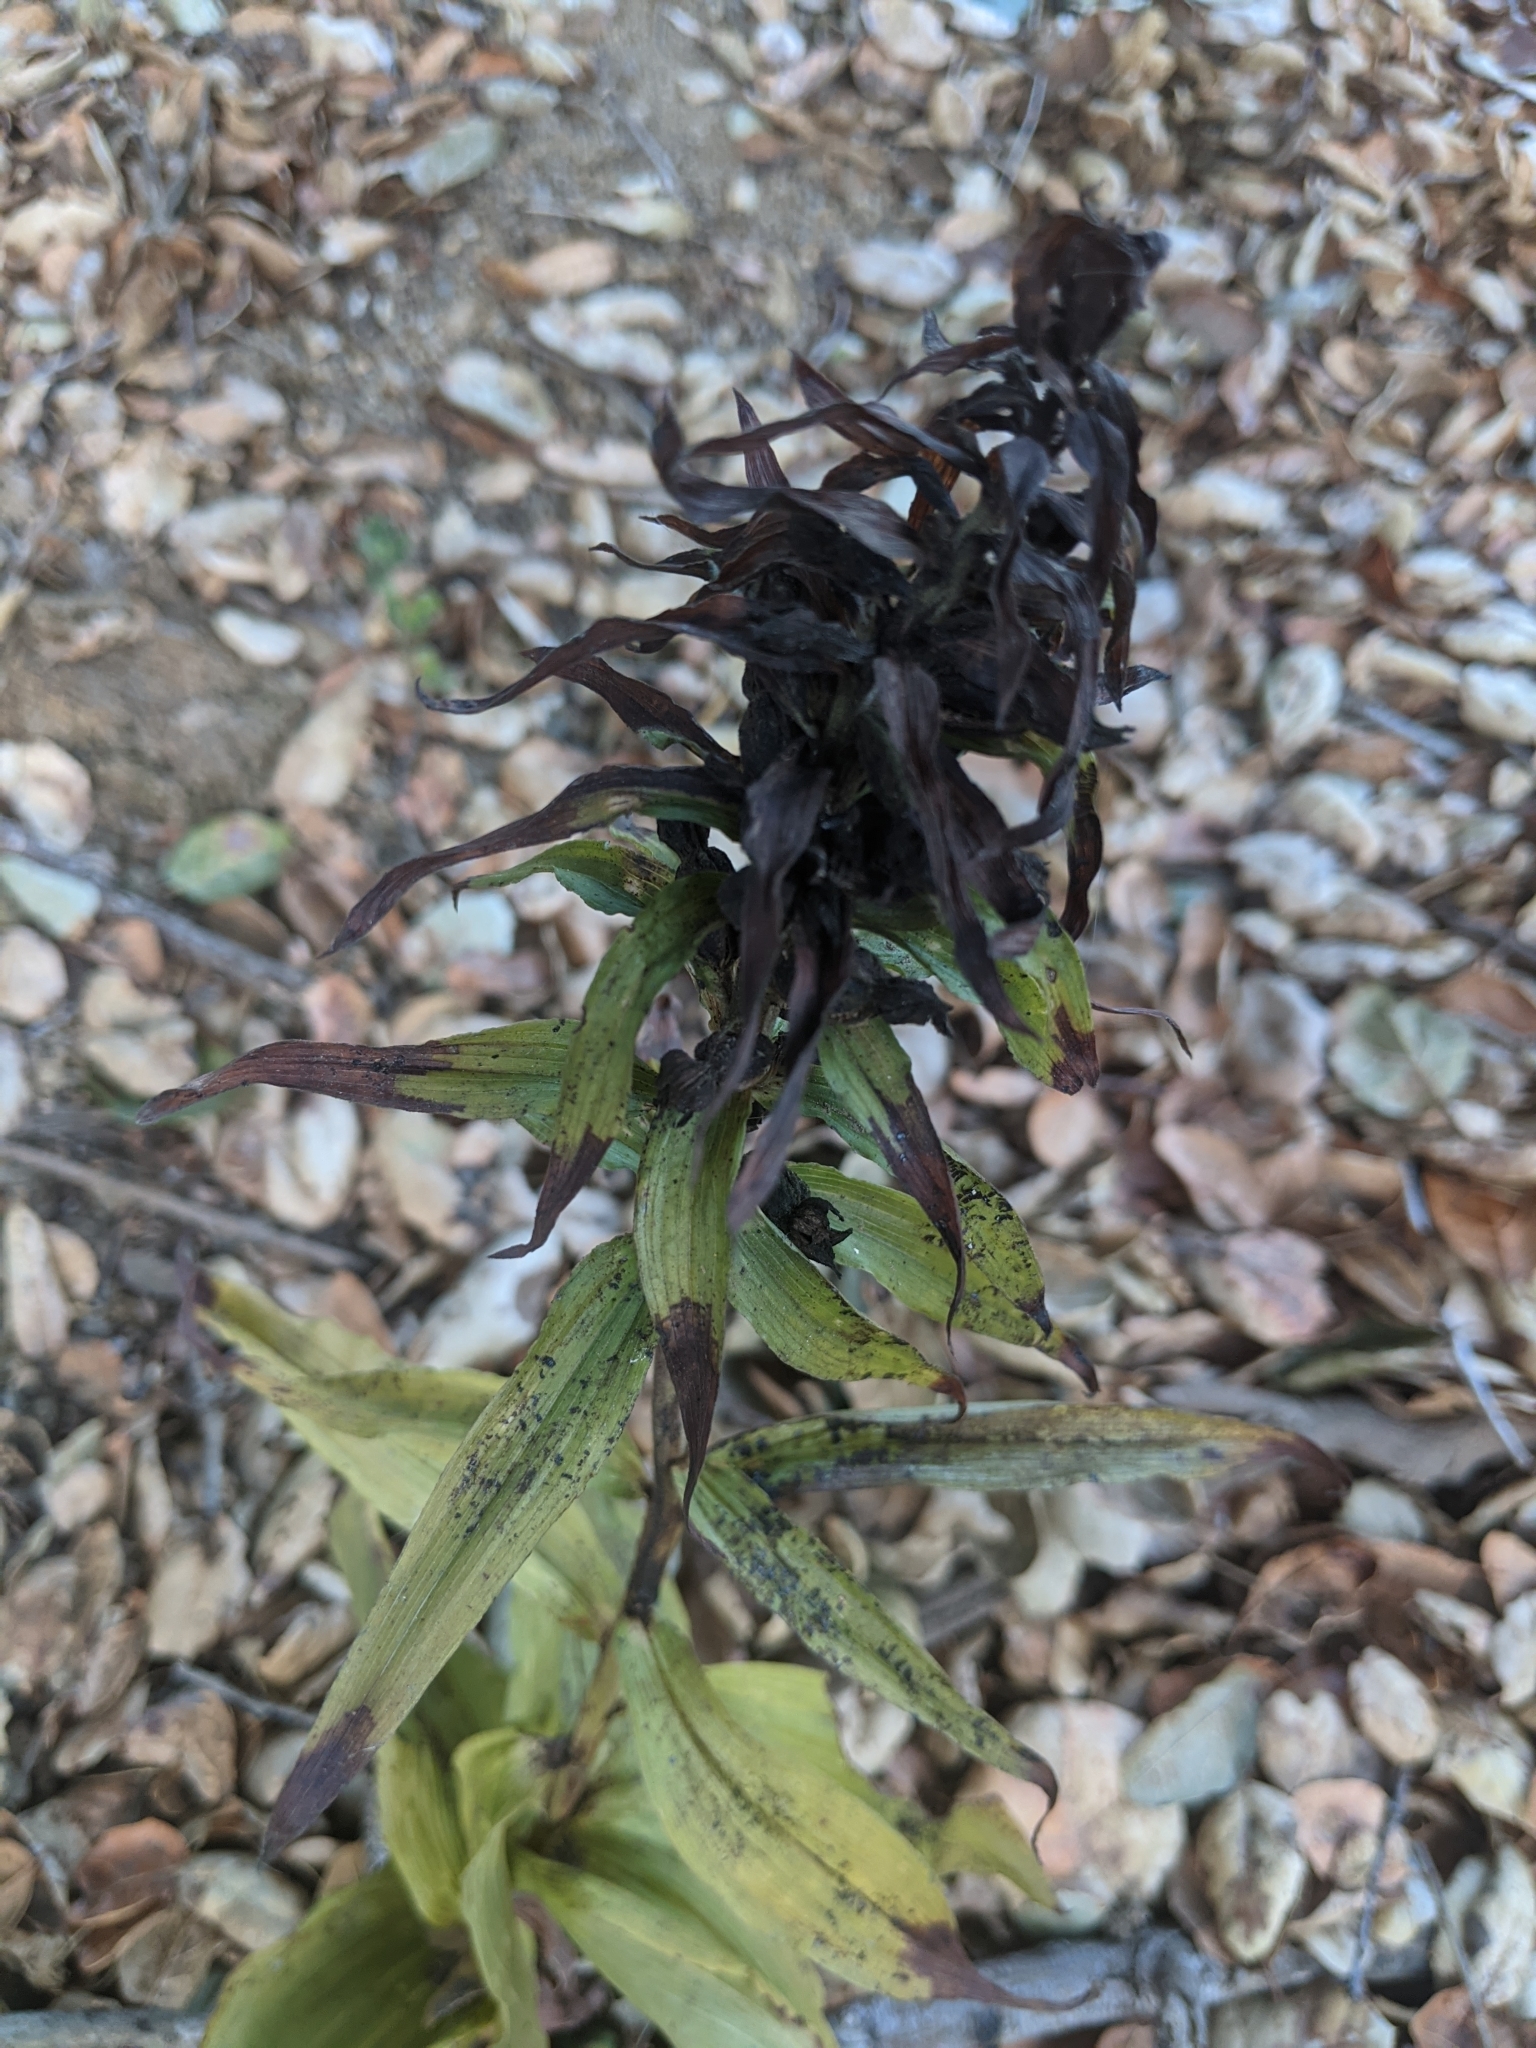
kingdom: Plantae
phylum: Tracheophyta
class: Liliopsida
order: Asparagales
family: Orchidaceae
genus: Epipactis
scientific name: Epipactis helleborine
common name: Broad-leaved helleborine
